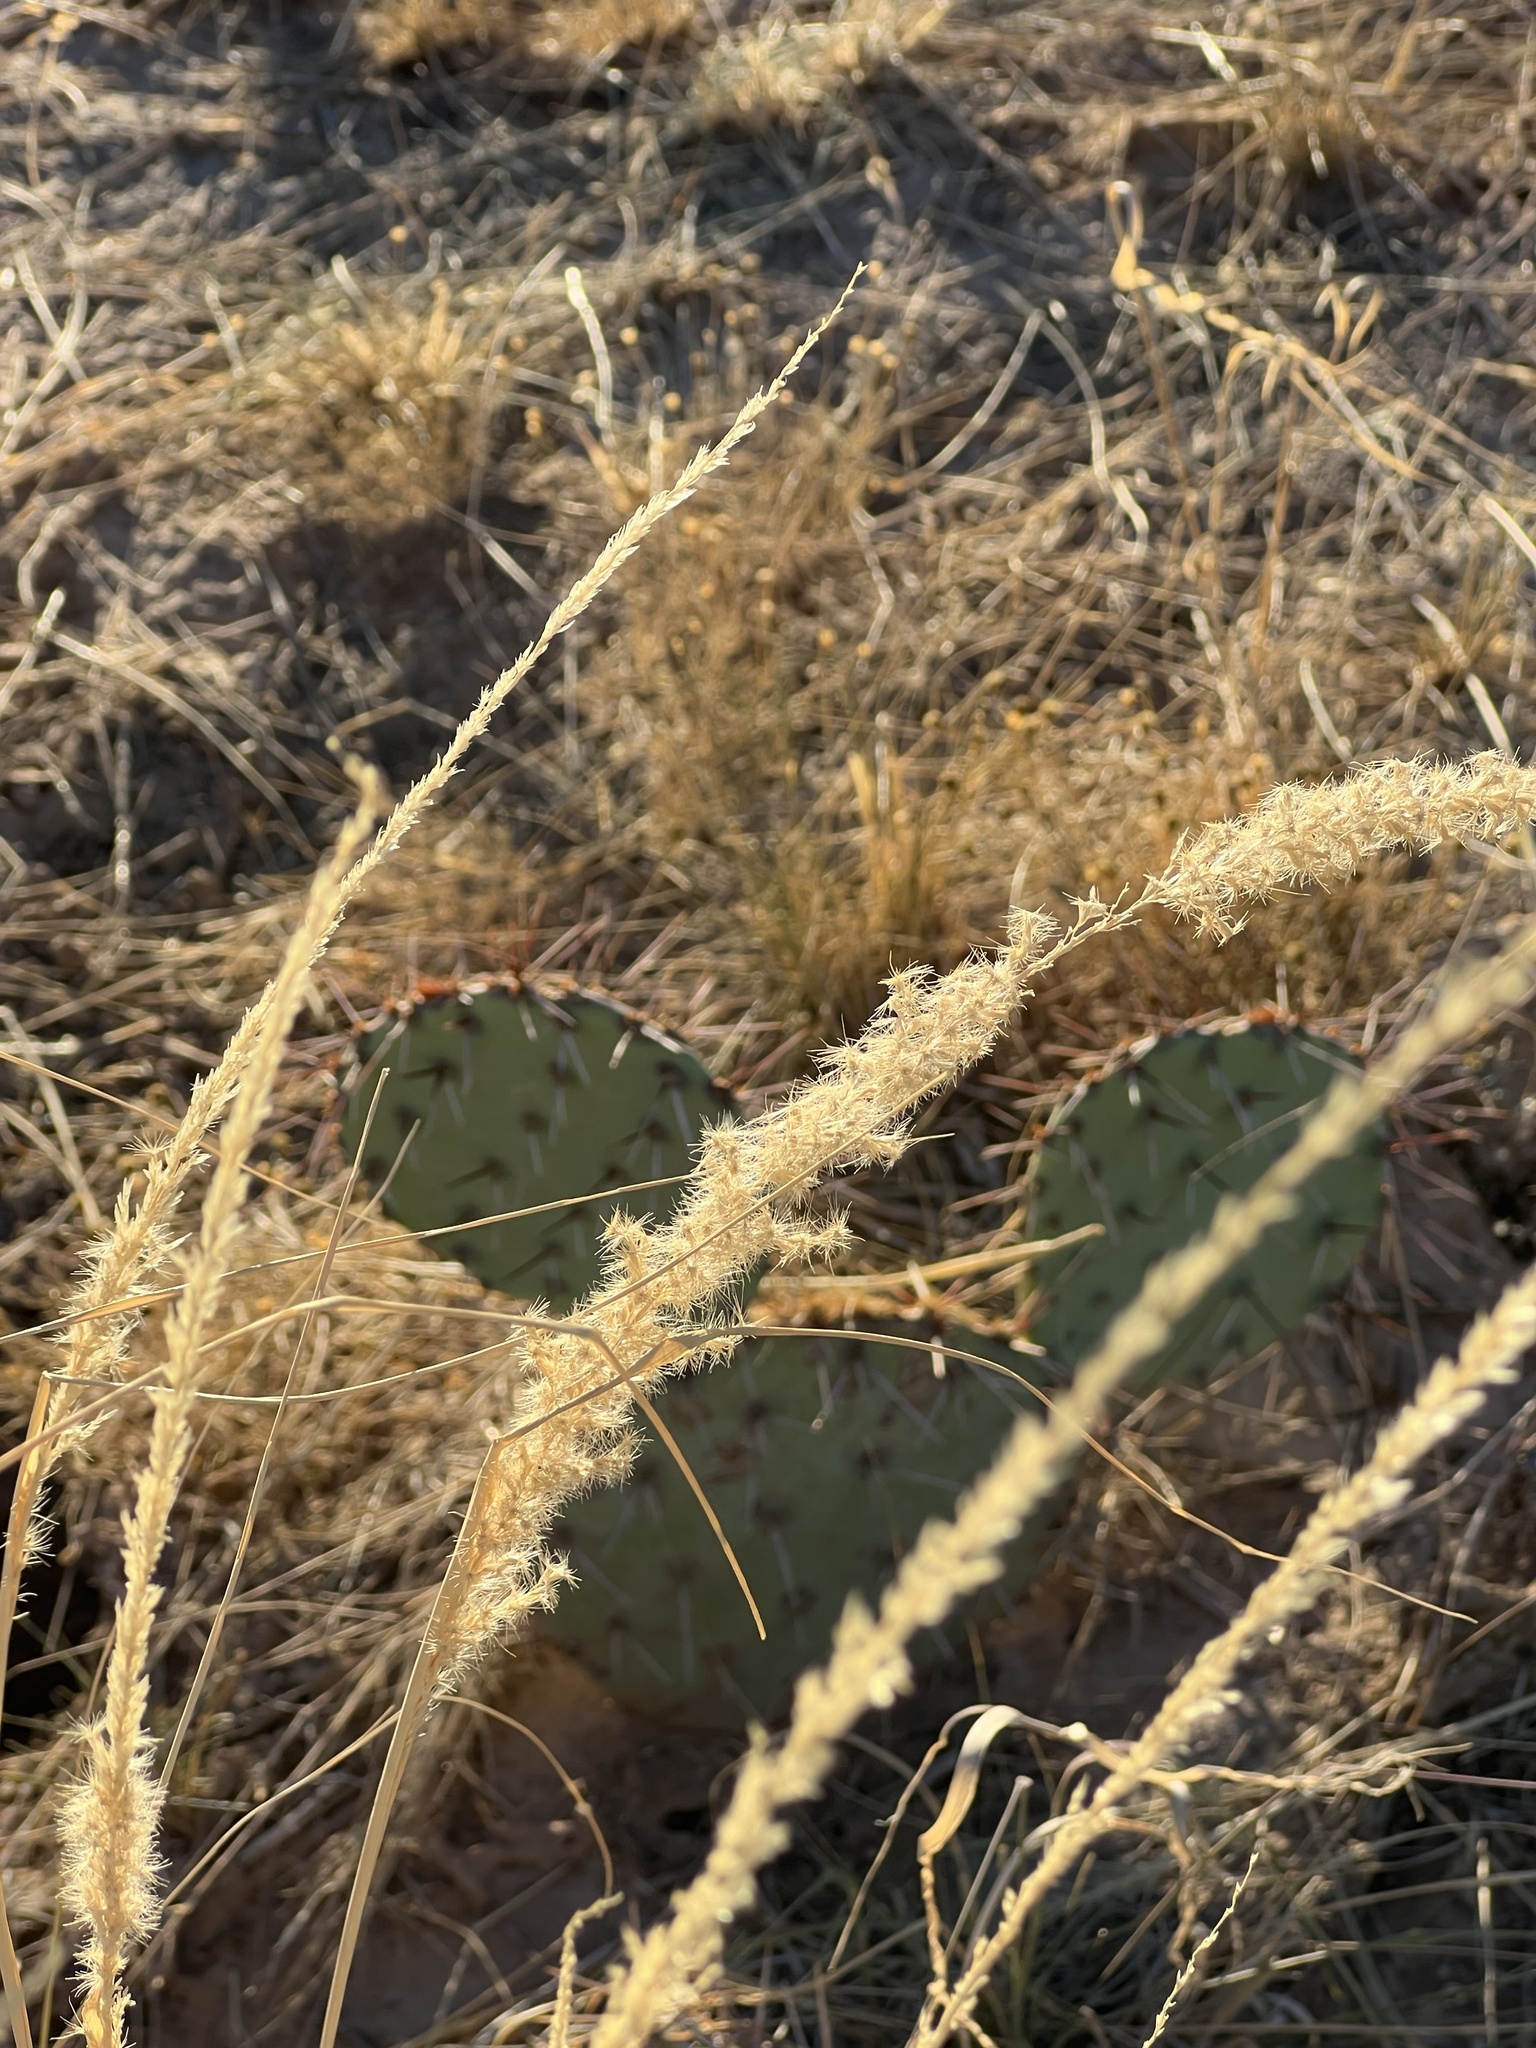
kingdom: Plantae
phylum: Tracheophyta
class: Liliopsida
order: Poales
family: Poaceae
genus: Pappophorum
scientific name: Pappophorum
